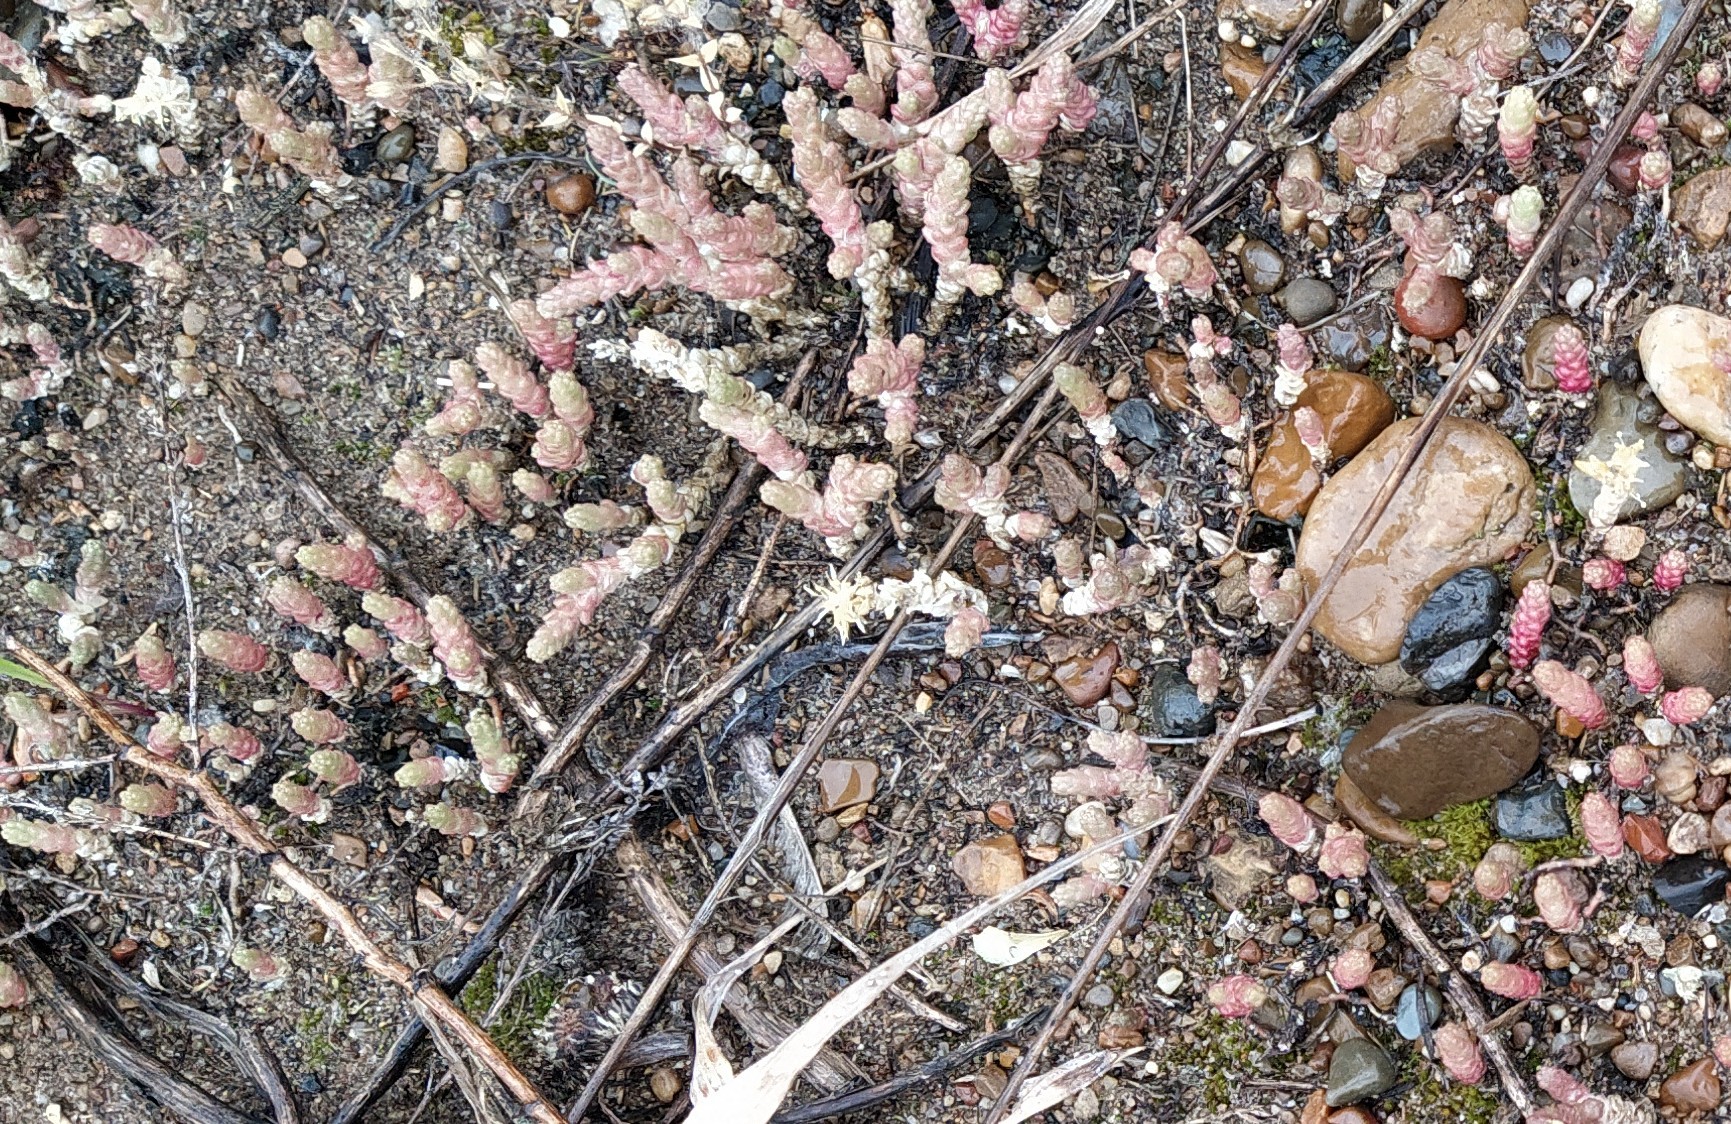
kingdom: Plantae
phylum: Tracheophyta
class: Magnoliopsida
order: Saxifragales
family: Crassulaceae
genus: Sedum
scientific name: Sedum acre
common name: Biting stonecrop
